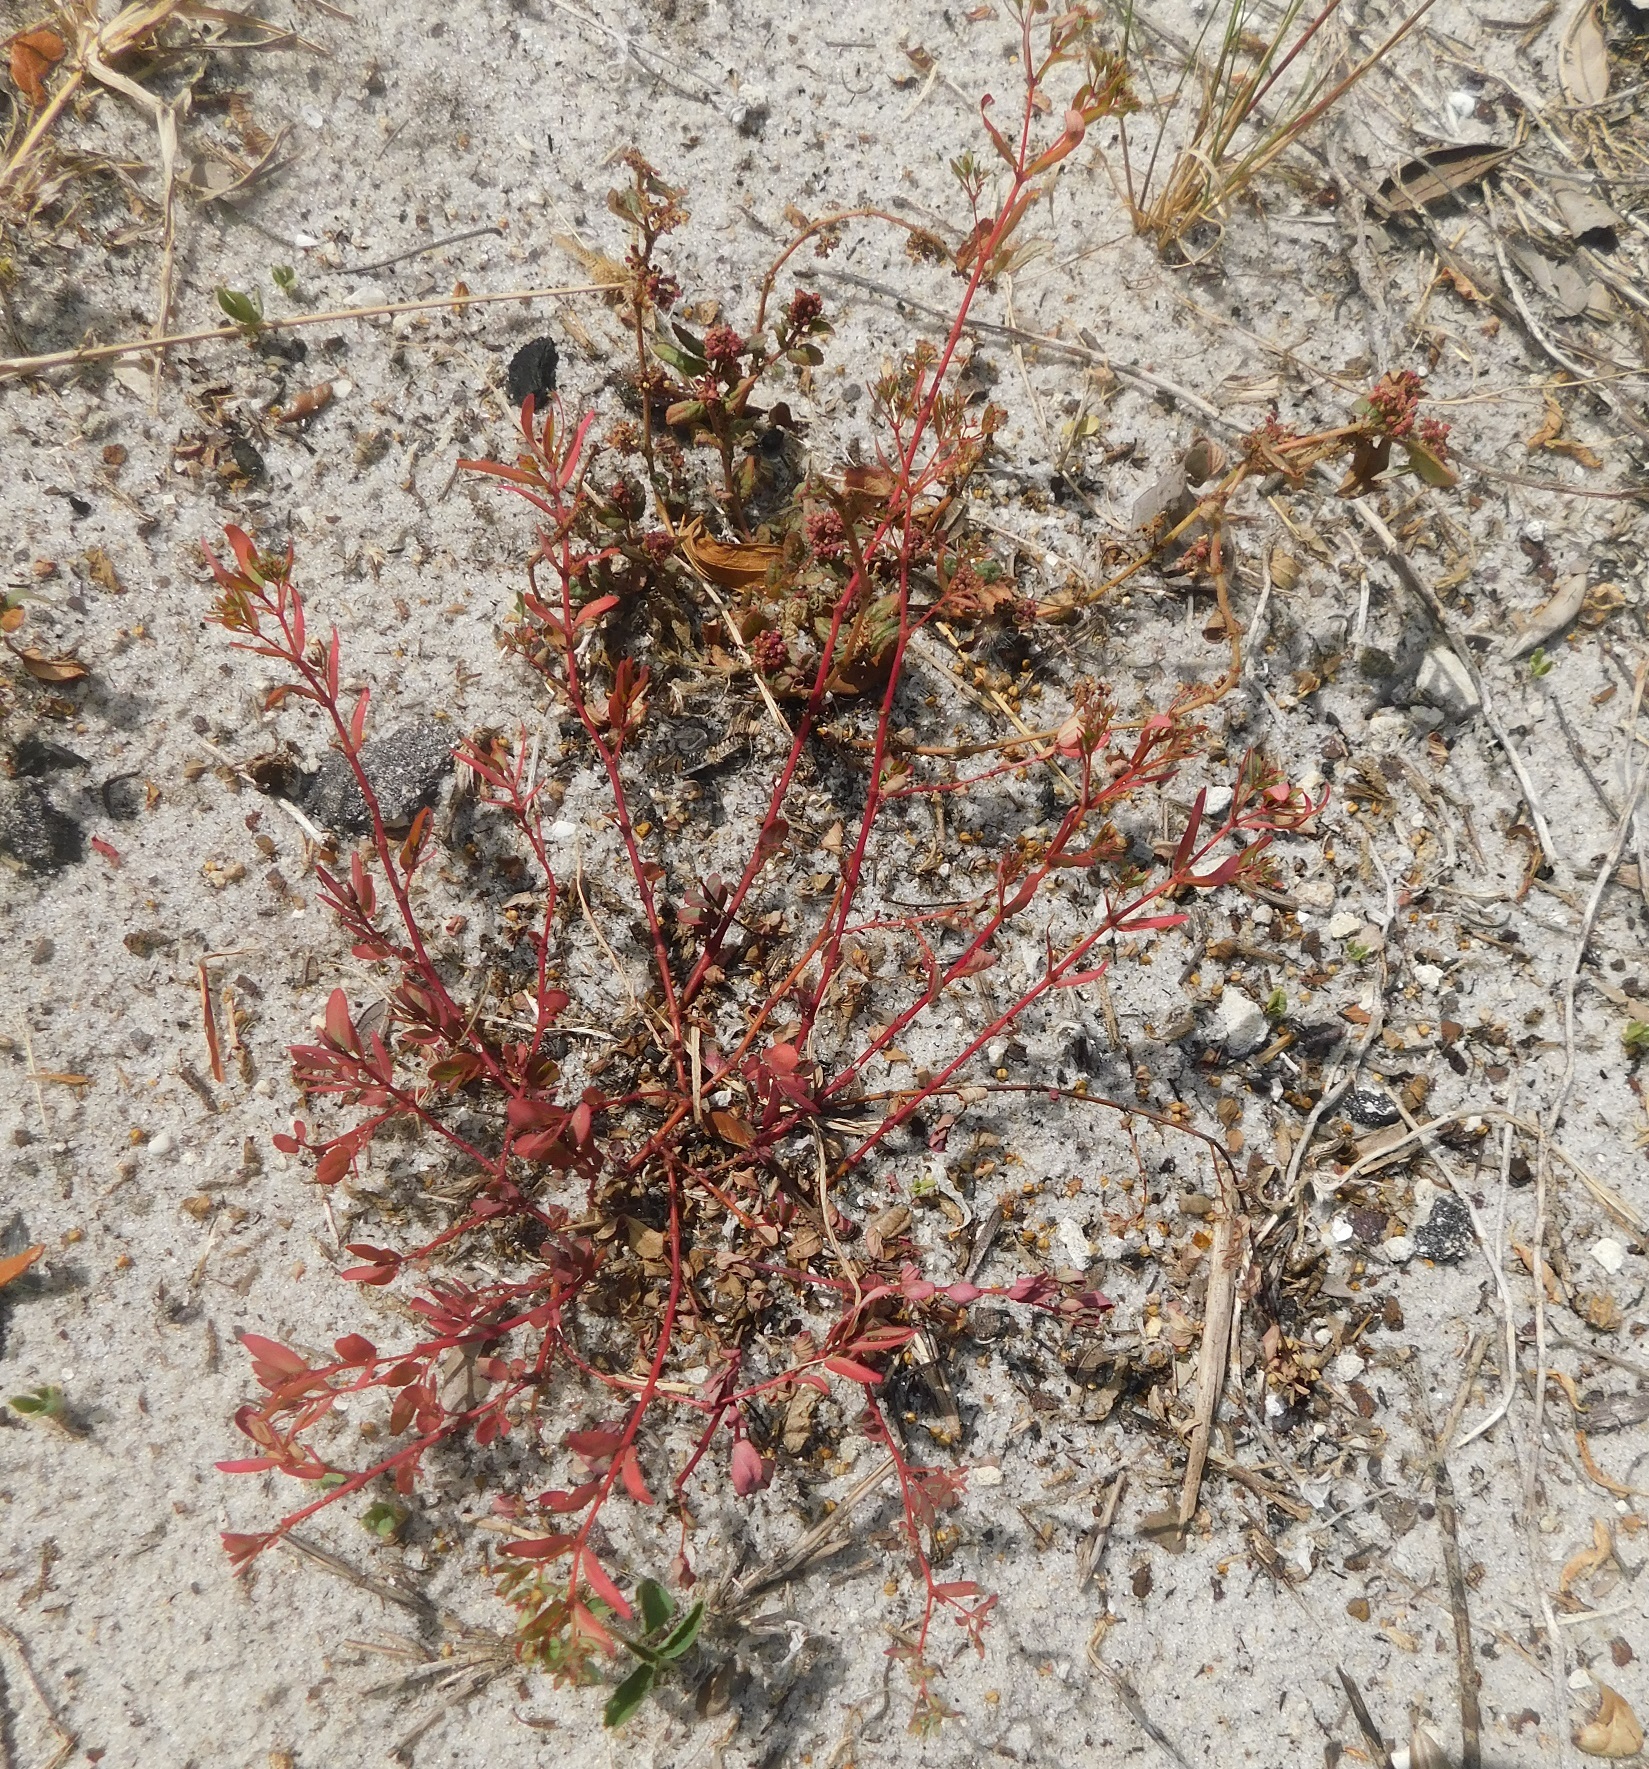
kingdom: Plantae
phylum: Tracheophyta
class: Magnoliopsida
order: Malpighiales
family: Euphorbiaceae
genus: Euphorbia
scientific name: Euphorbia hyssopifolia
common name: Hyssopleaf sandmat
